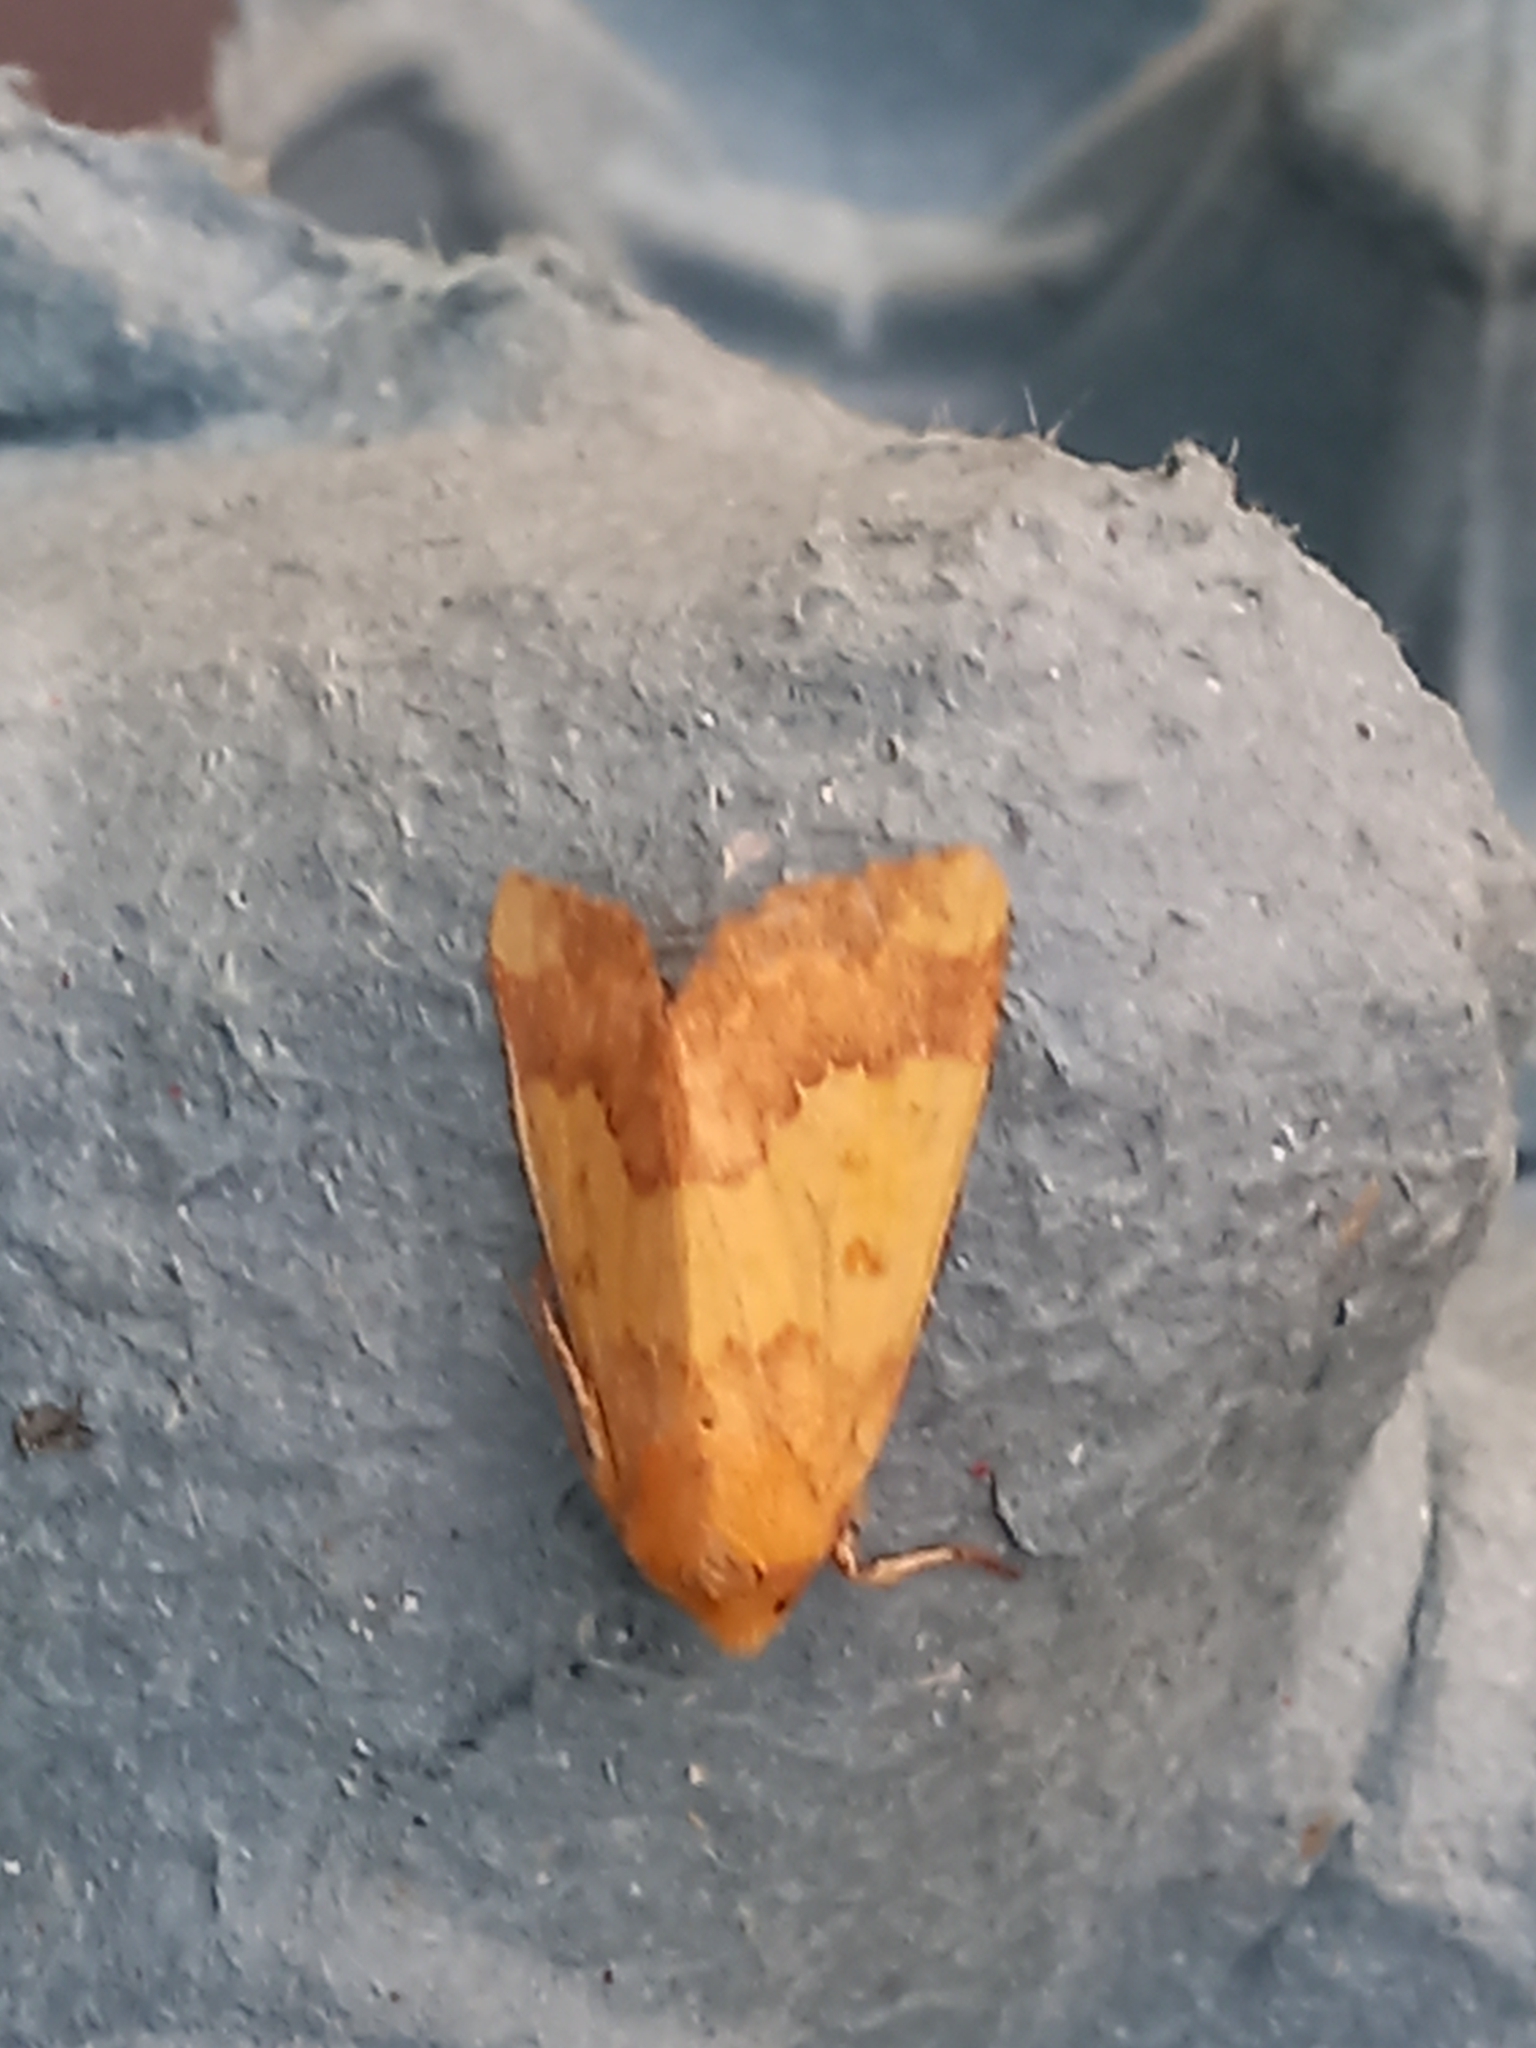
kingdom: Animalia
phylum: Arthropoda
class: Insecta
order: Lepidoptera
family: Noctuidae
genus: Tiliacea
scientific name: Tiliacea aurago
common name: Barred sallow
